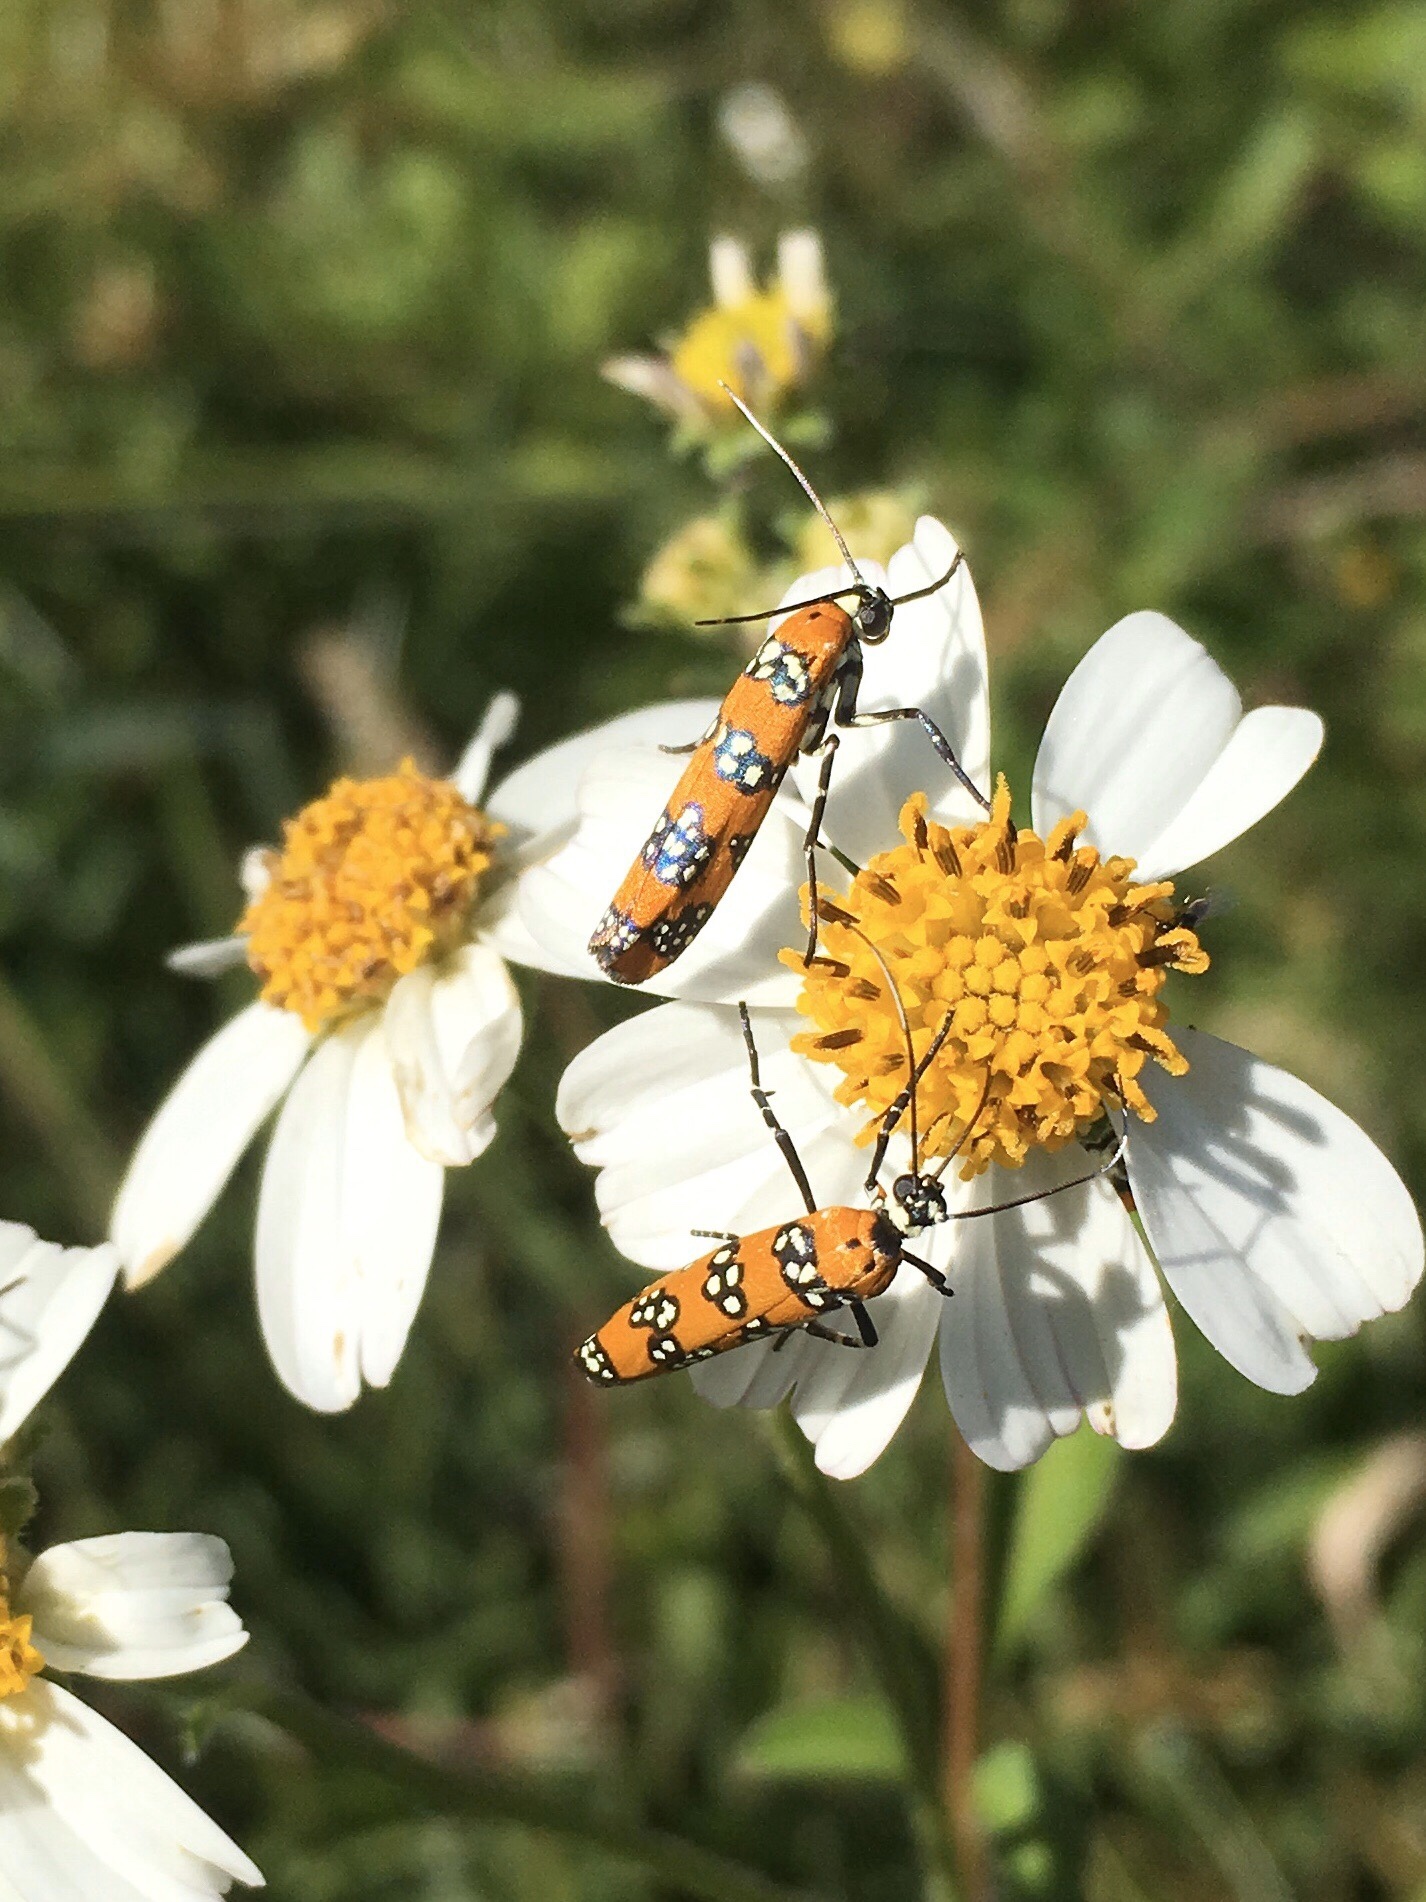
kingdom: Animalia
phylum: Arthropoda
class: Insecta
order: Lepidoptera
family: Attevidae
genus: Atteva
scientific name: Atteva punctella
